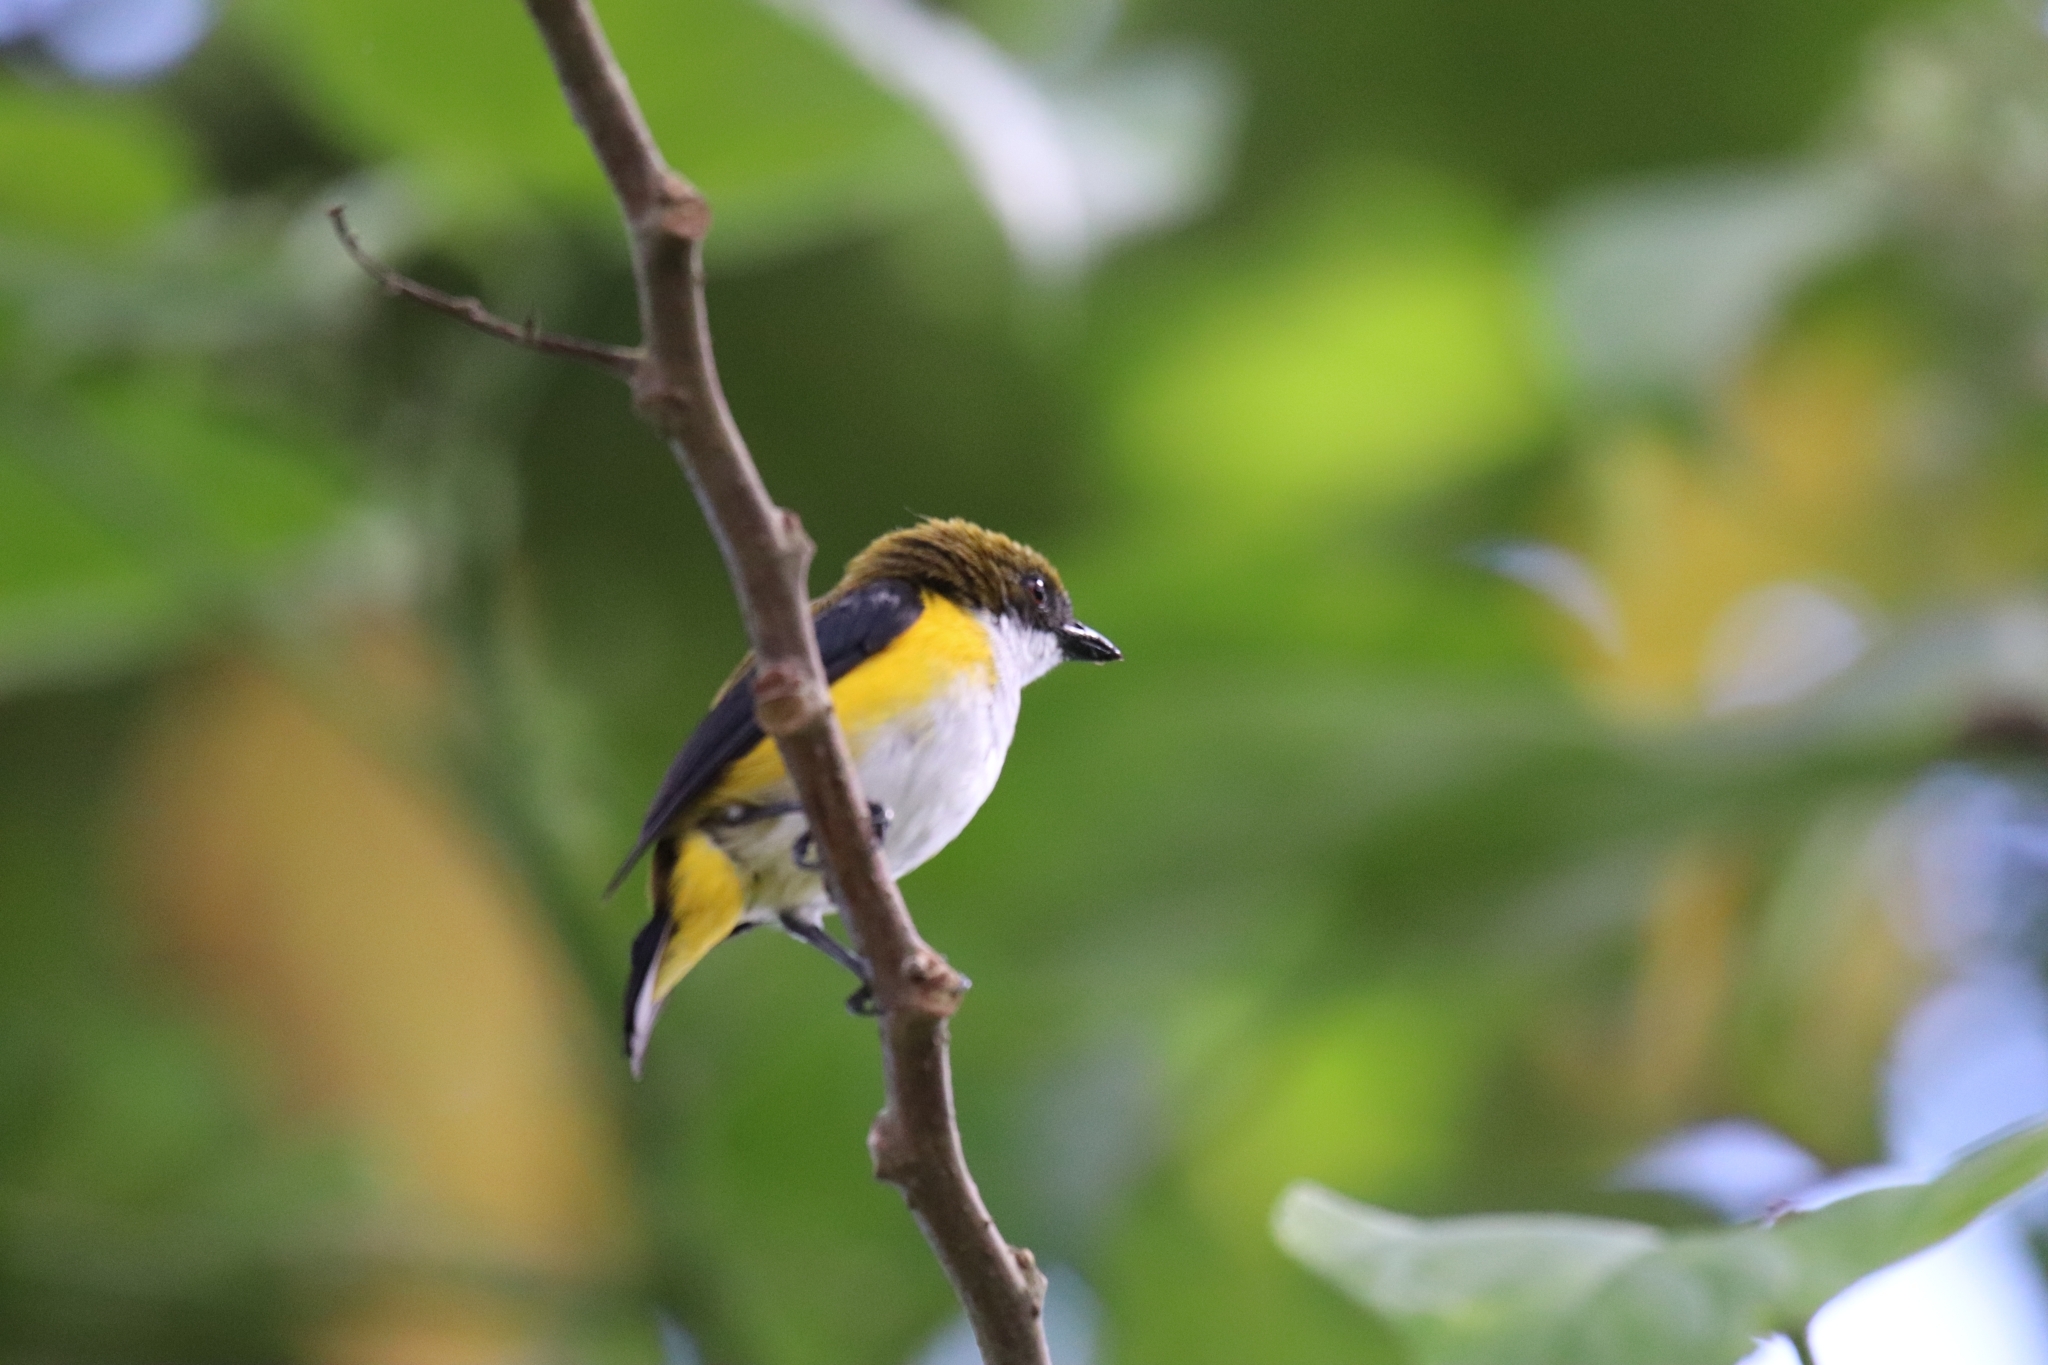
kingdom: Animalia
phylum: Chordata
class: Aves
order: Passeriformes
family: Dicaeidae
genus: Dicaeum
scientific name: Dicaeum aureolimbatum
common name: Yellow-sided flowerpecker
